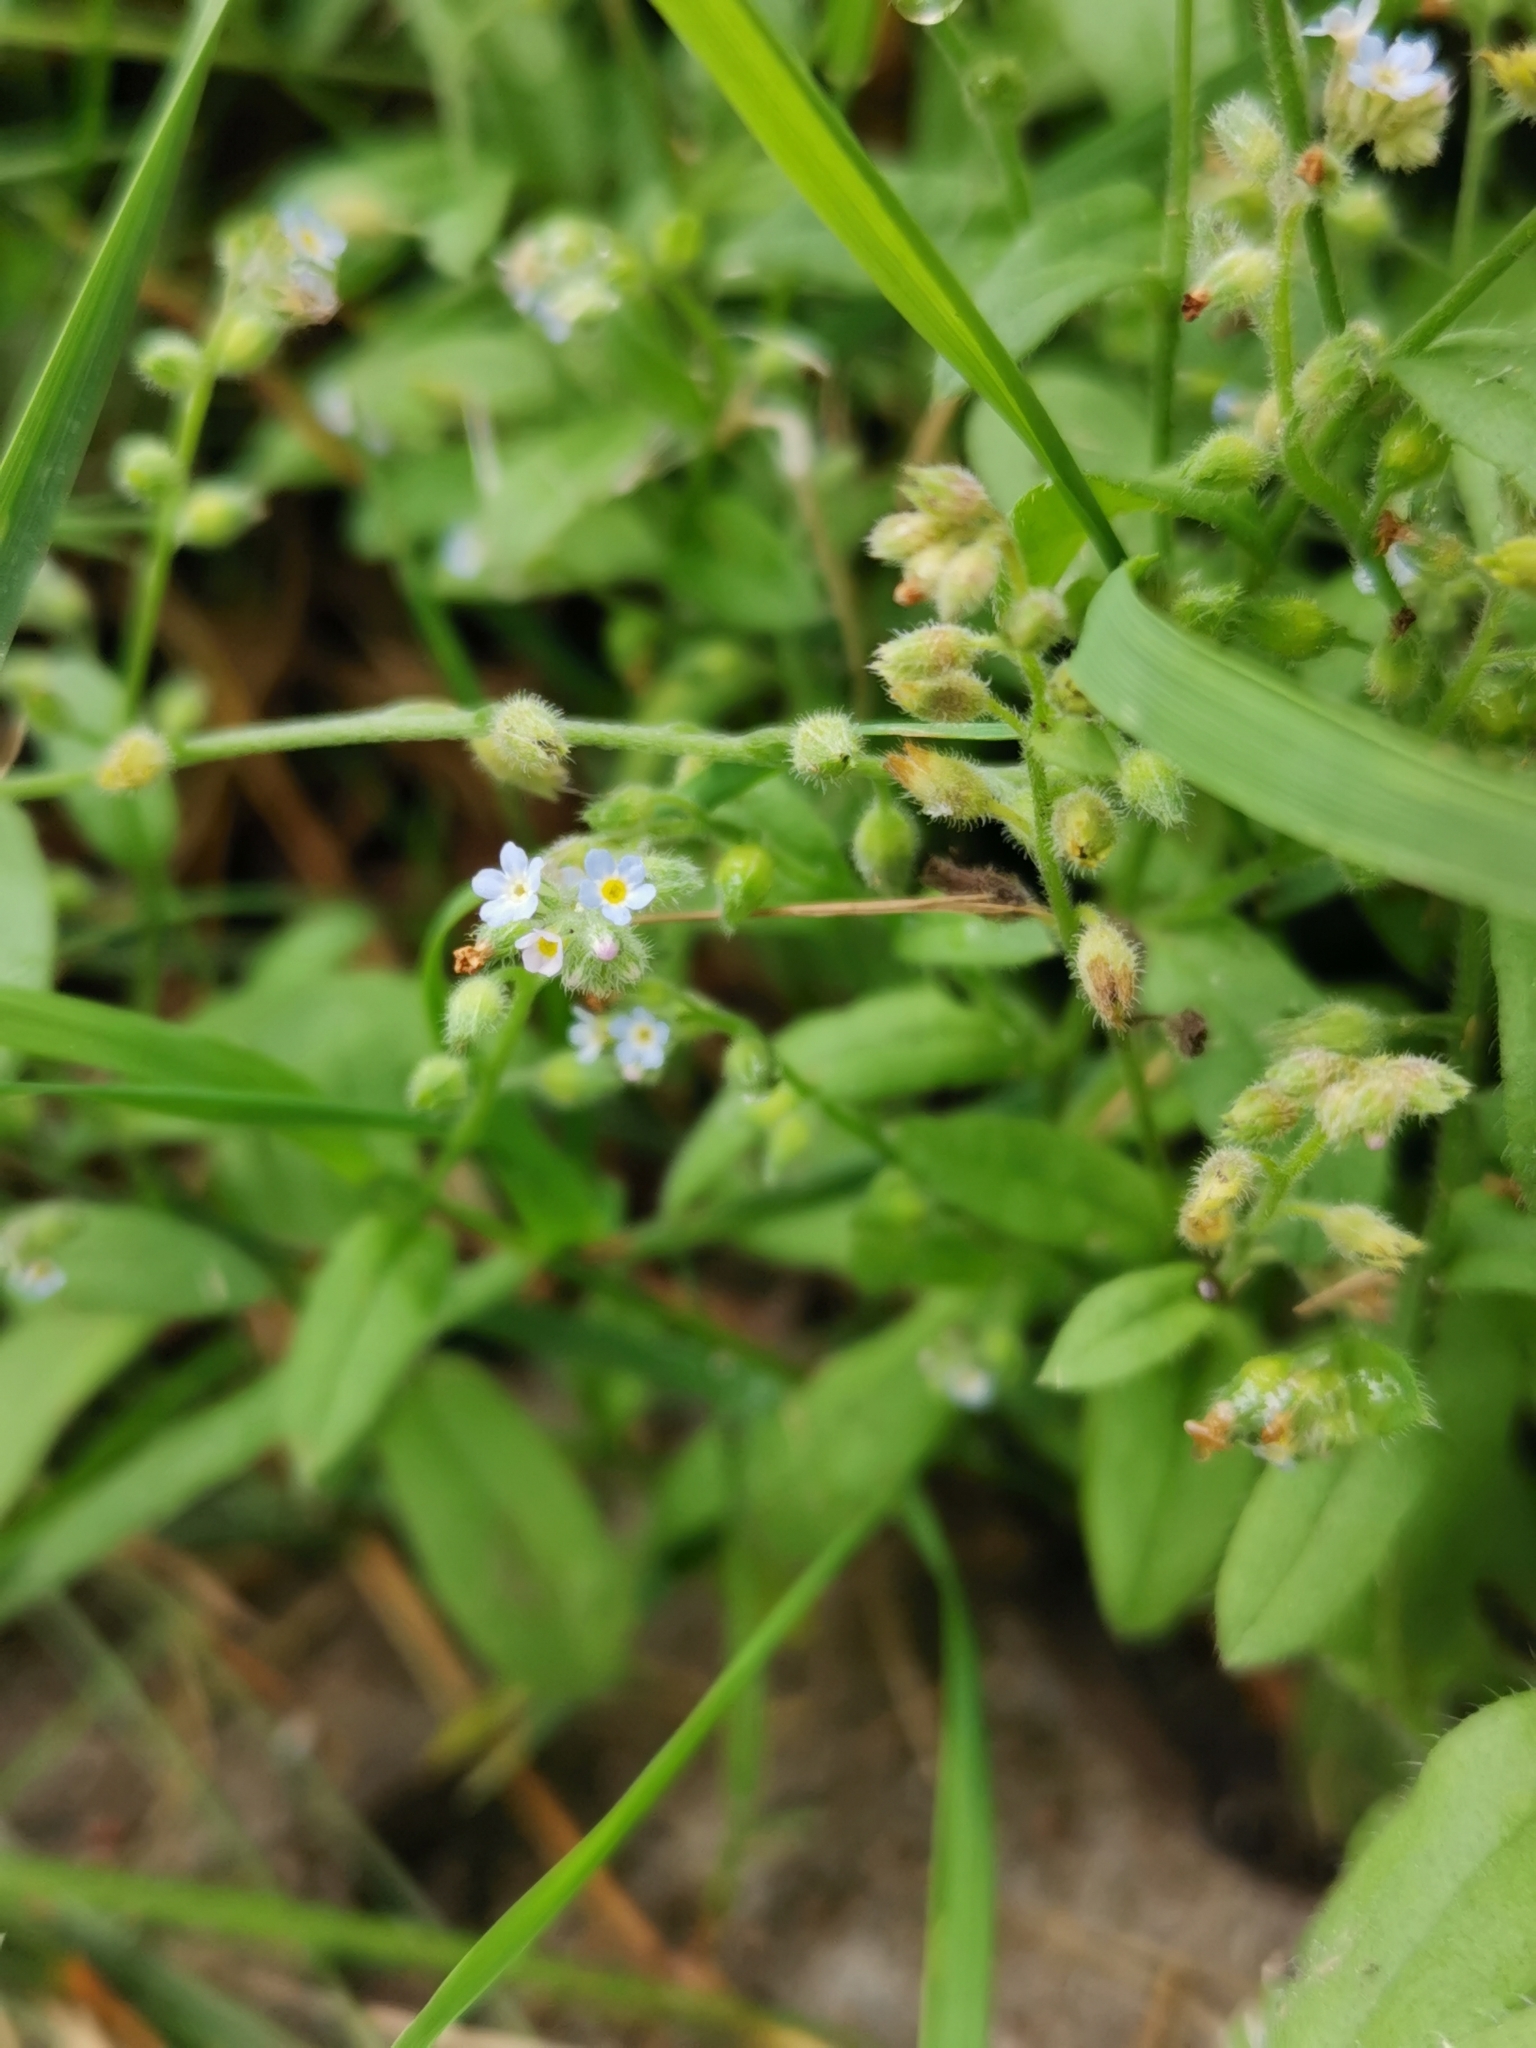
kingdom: Plantae
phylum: Tracheophyta
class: Magnoliopsida
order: Boraginales
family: Boraginaceae
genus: Myosotis
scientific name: Myosotis arvensis
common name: Field forget-me-not
